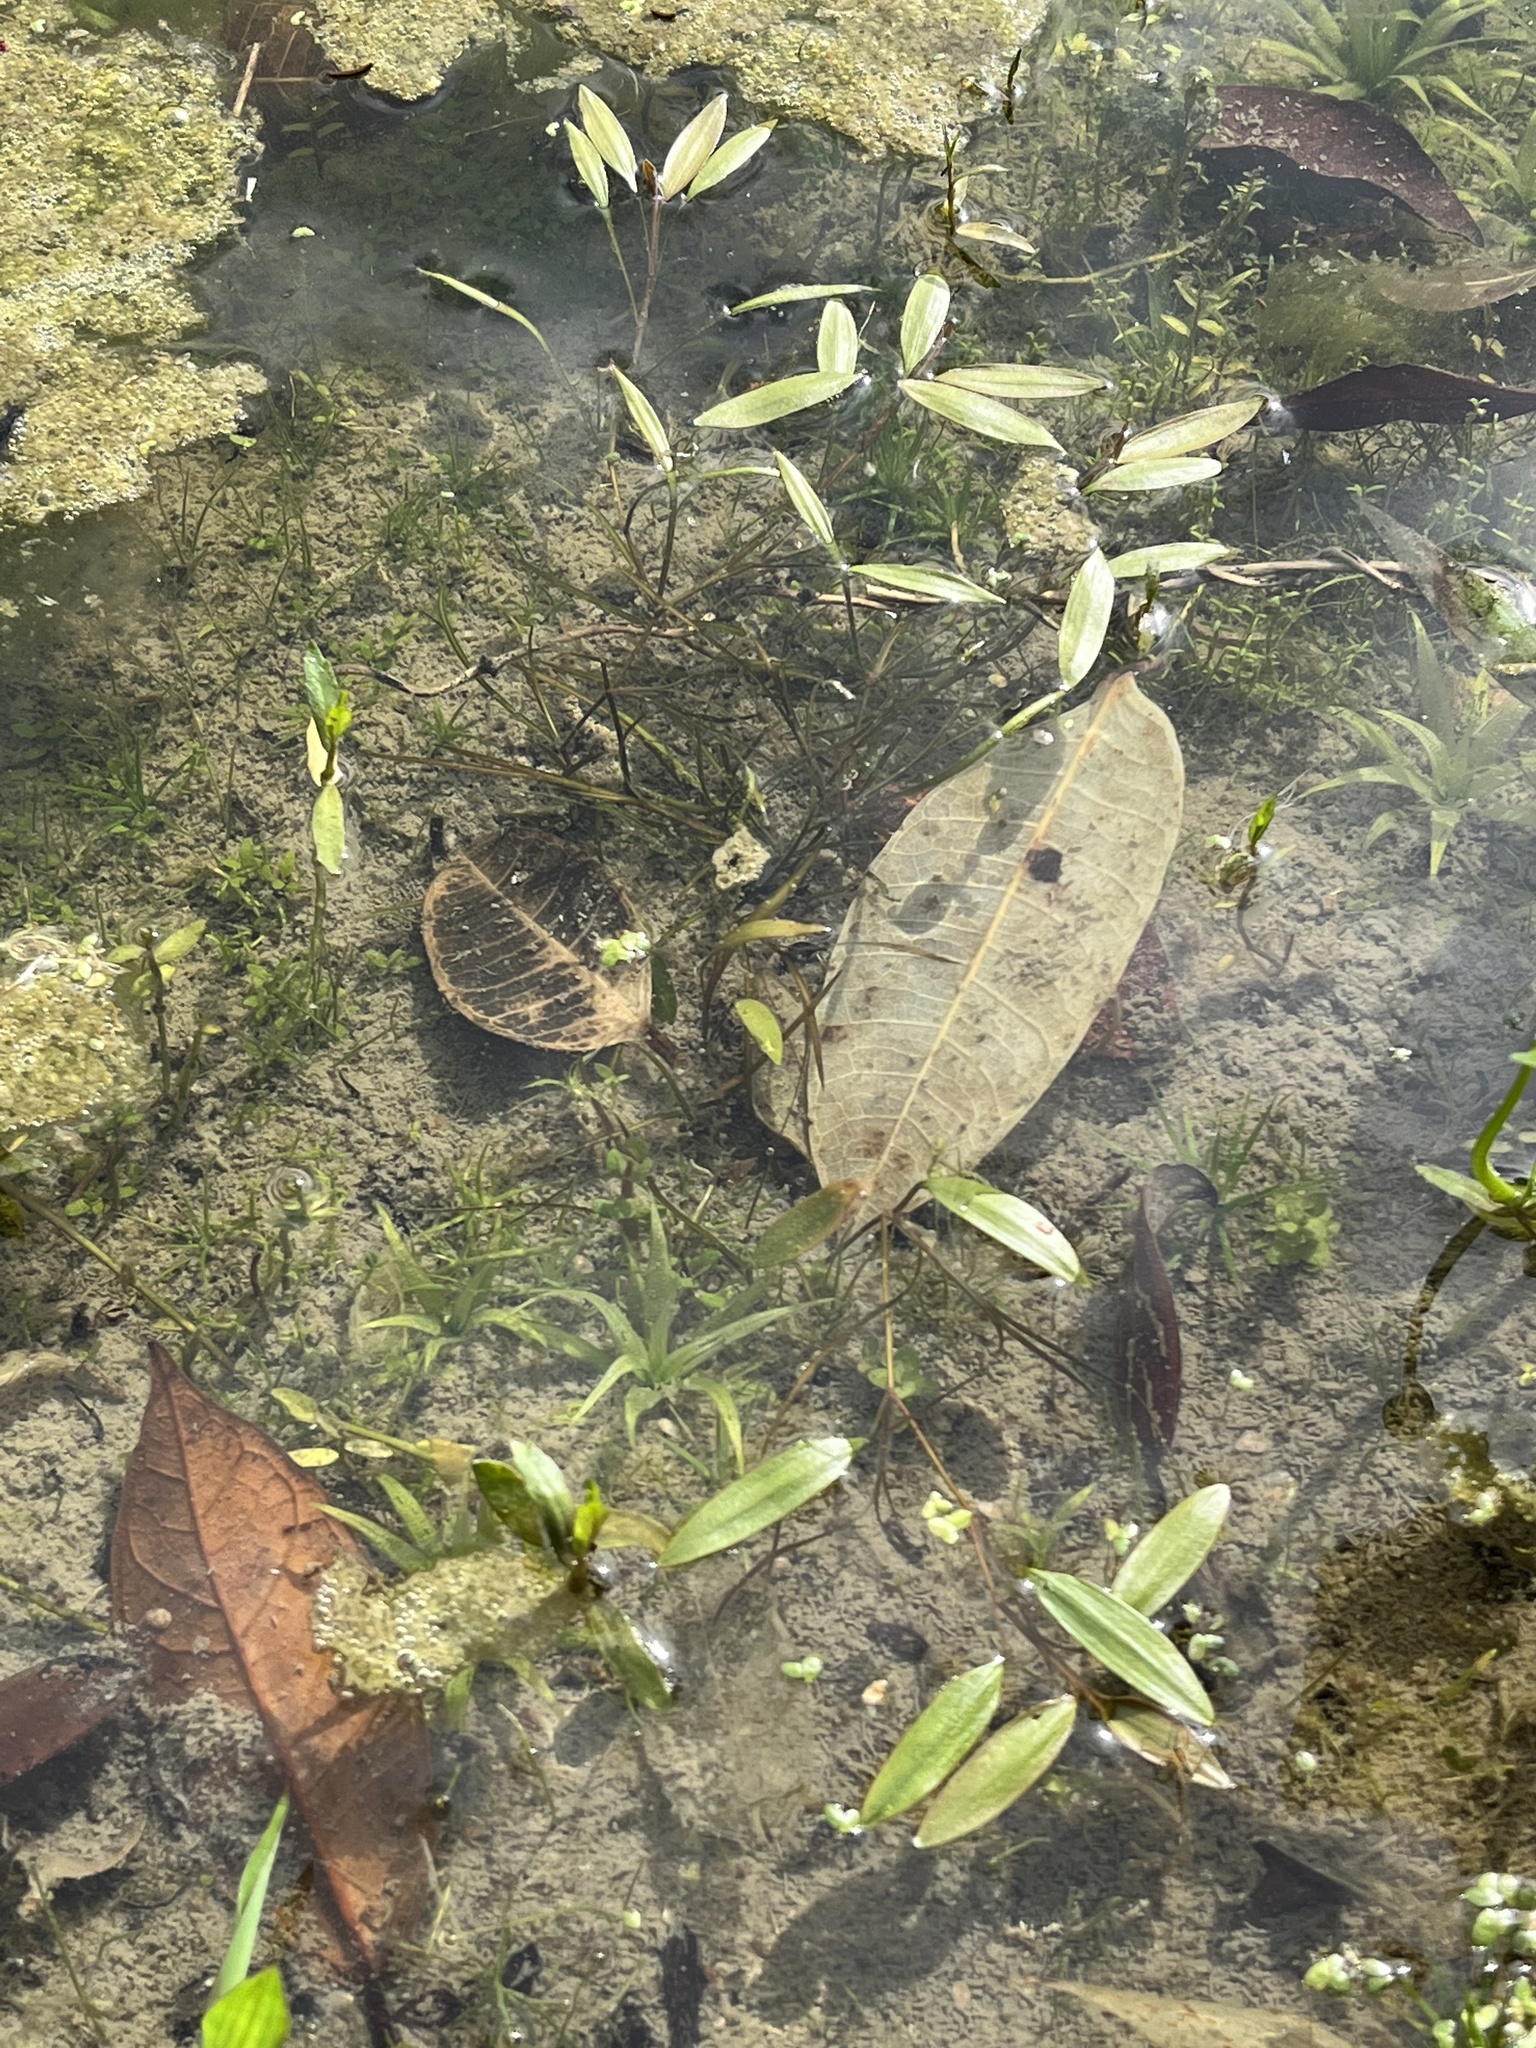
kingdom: Plantae
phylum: Tracheophyta
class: Liliopsida
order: Alismatales
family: Potamogetonaceae
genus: Potamogeton
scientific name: Potamogeton octandrus
